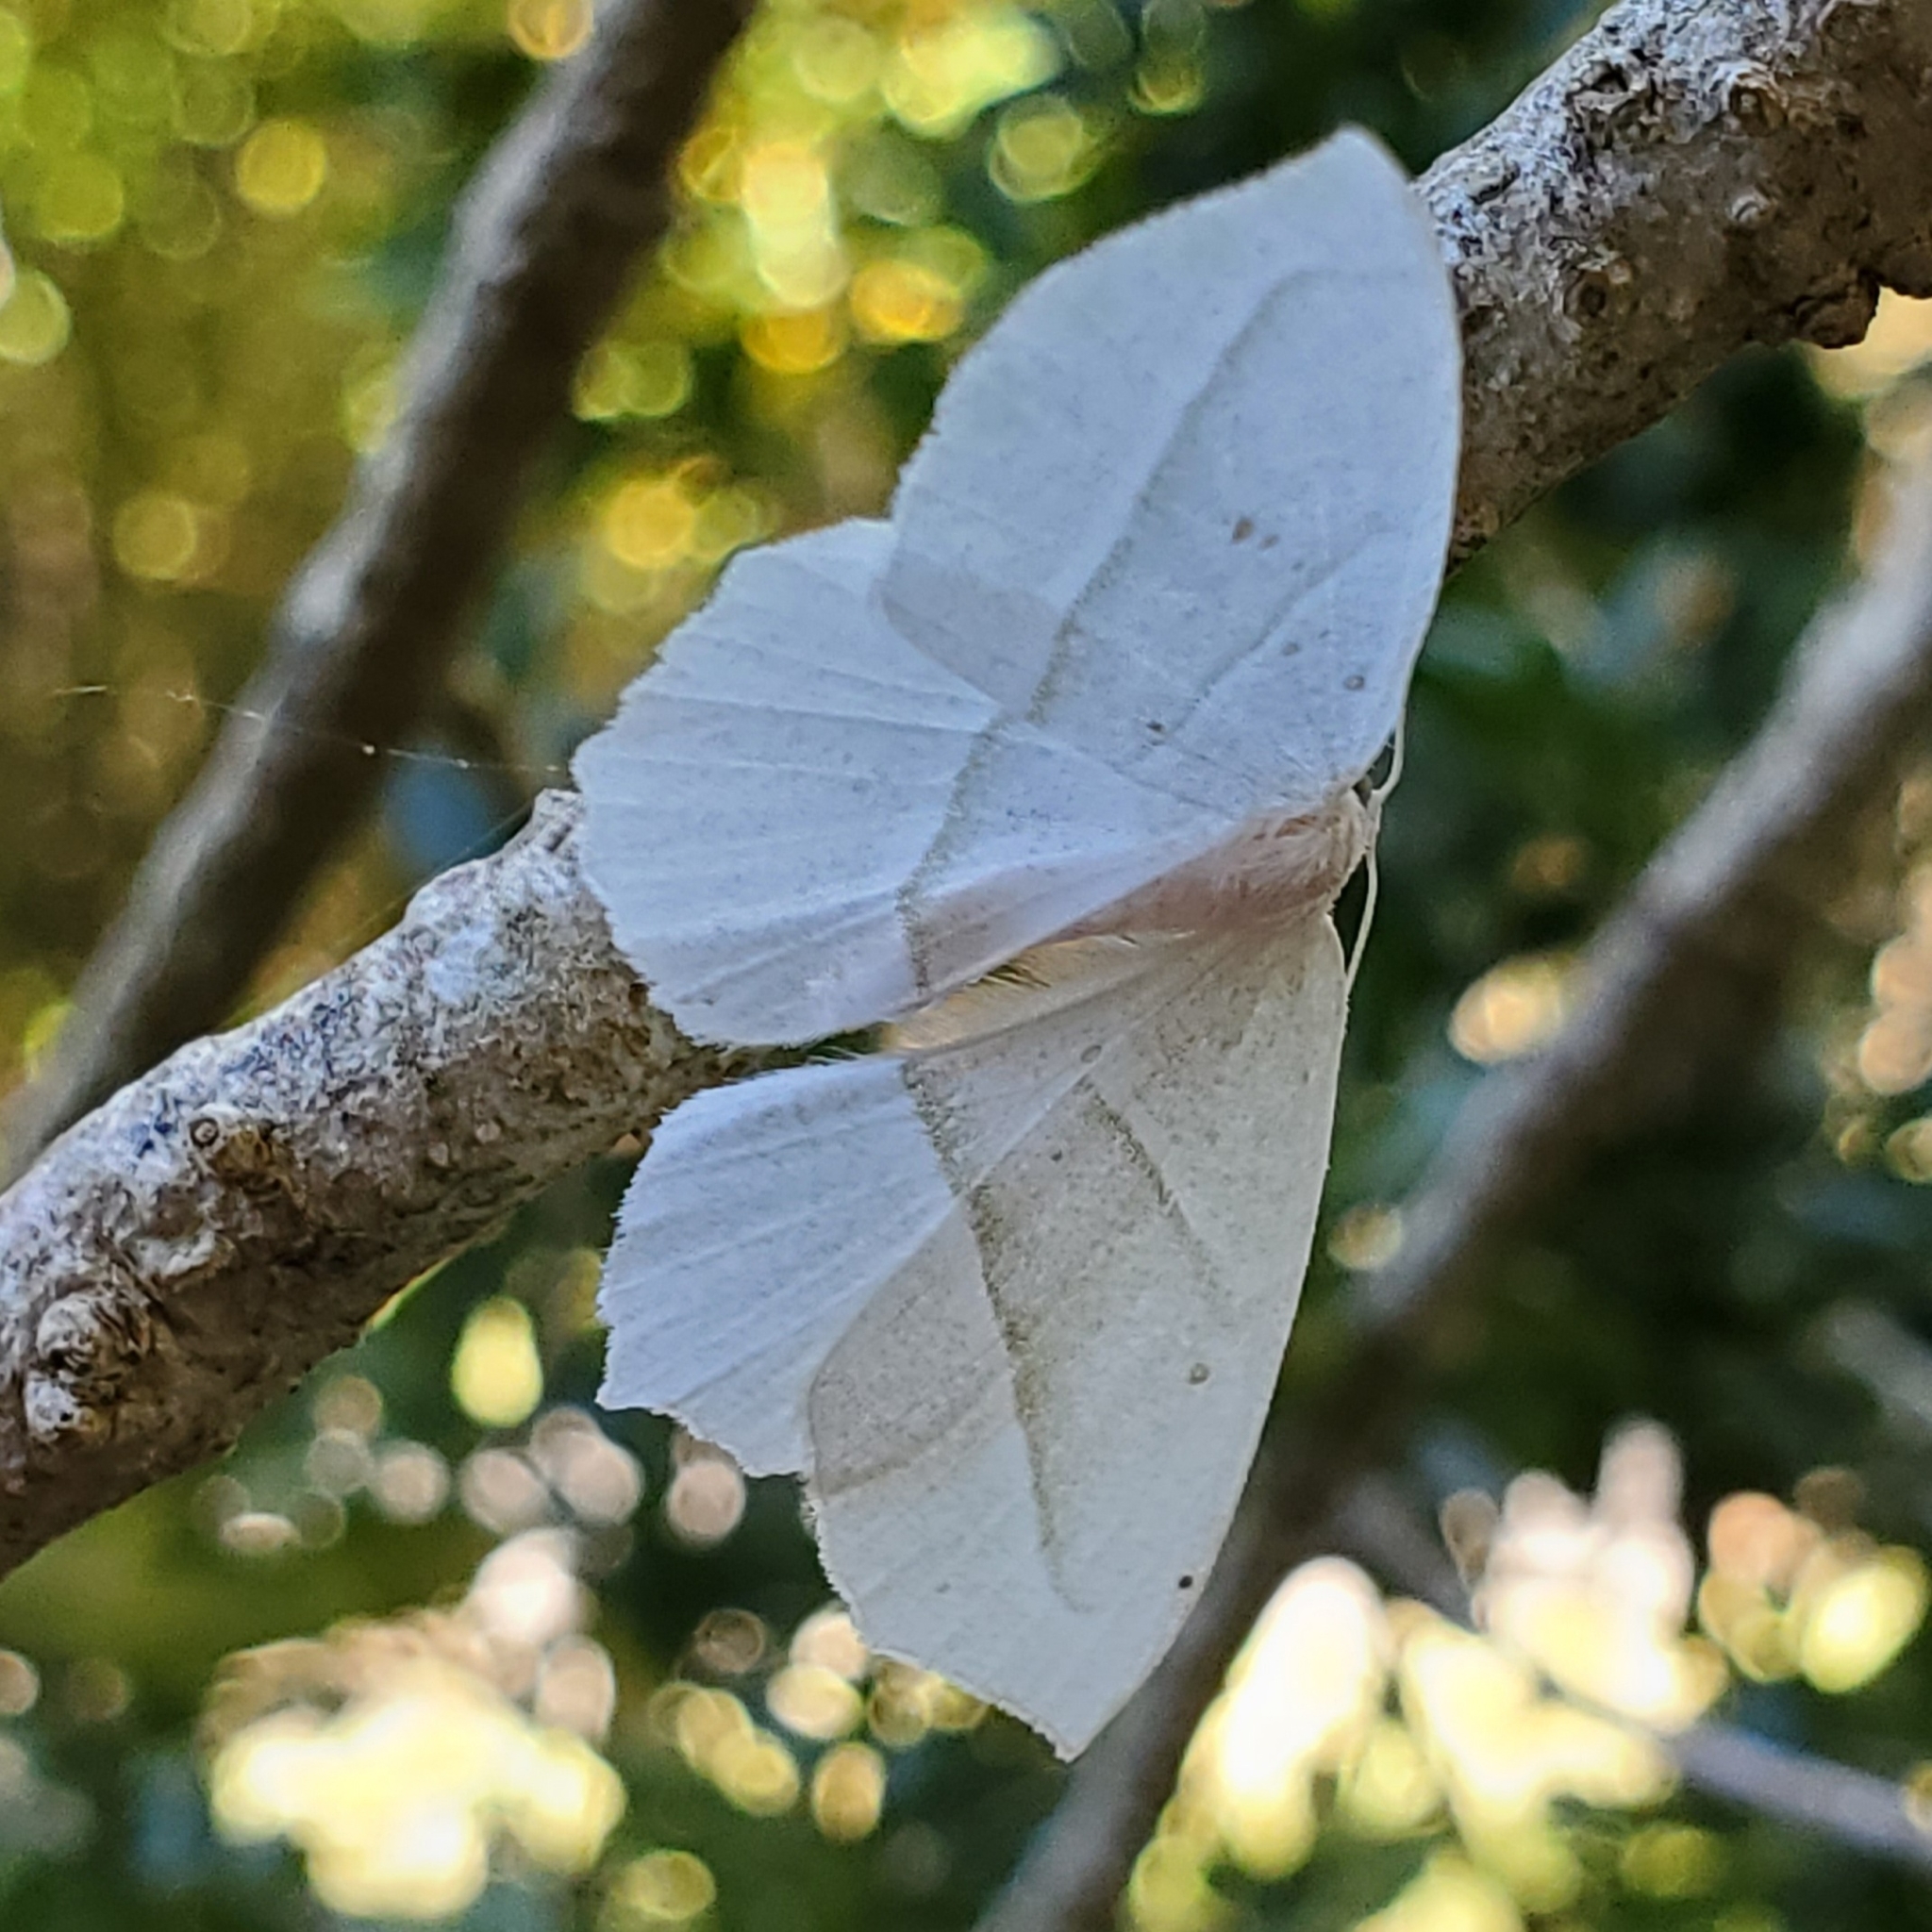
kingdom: Animalia
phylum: Arthropoda
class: Insecta
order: Lepidoptera
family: Geometridae
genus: Campaea
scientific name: Campaea perlata
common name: Fringed looper
